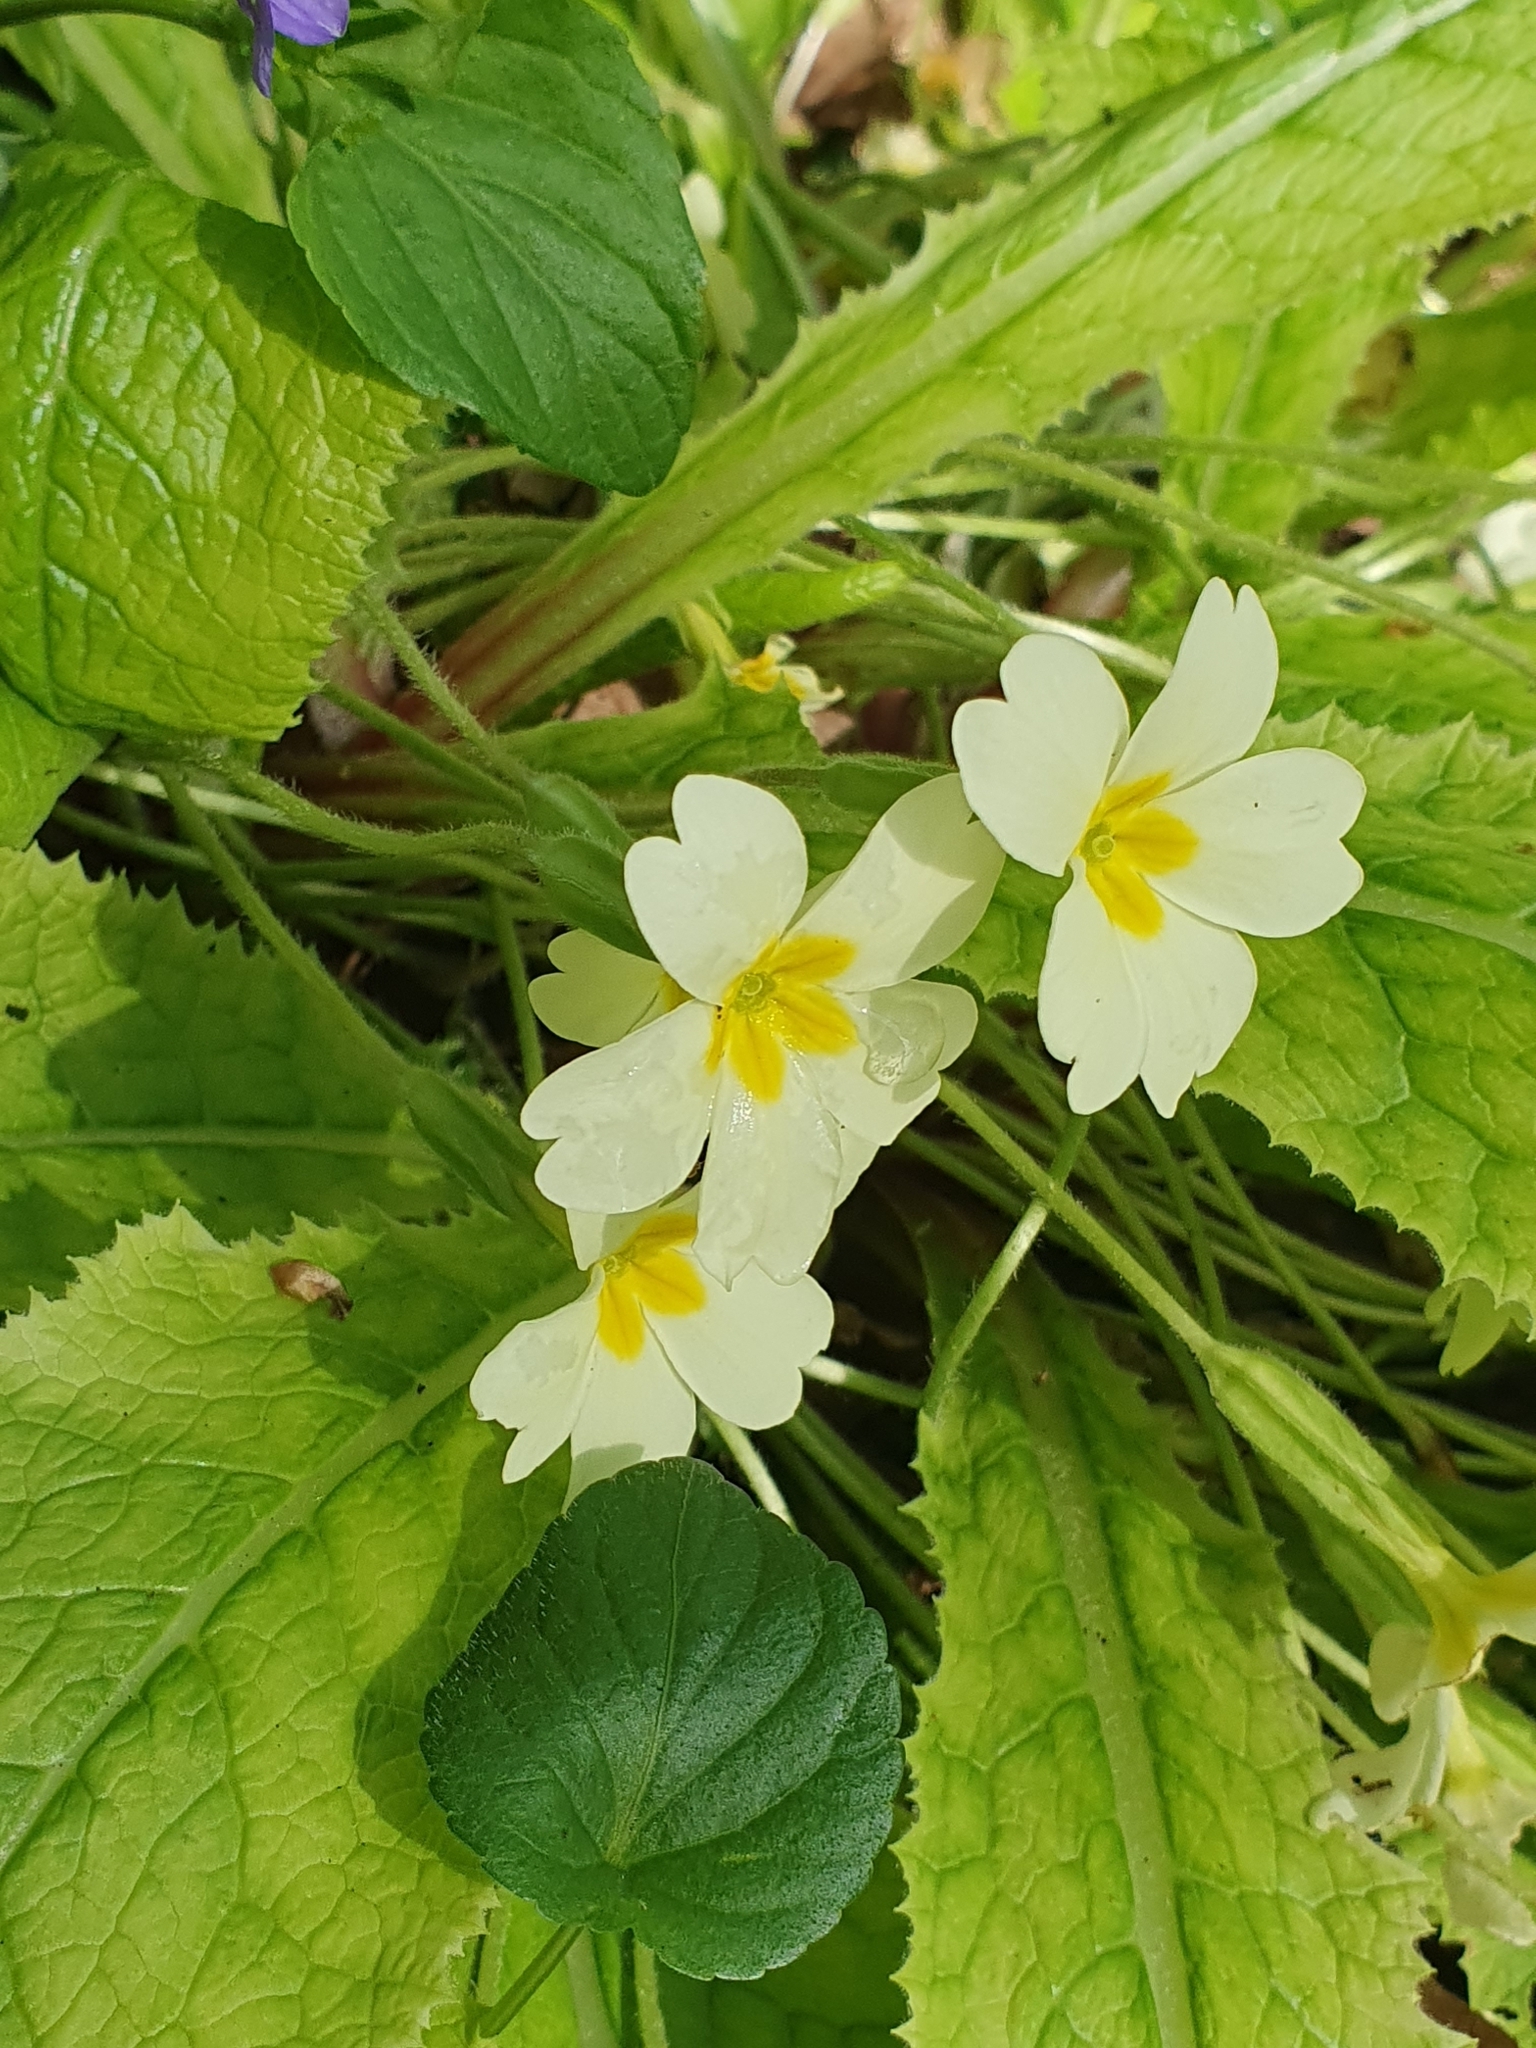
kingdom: Plantae
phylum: Tracheophyta
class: Magnoliopsida
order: Ericales
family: Primulaceae
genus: Primula
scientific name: Primula vulgaris
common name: Primrose
